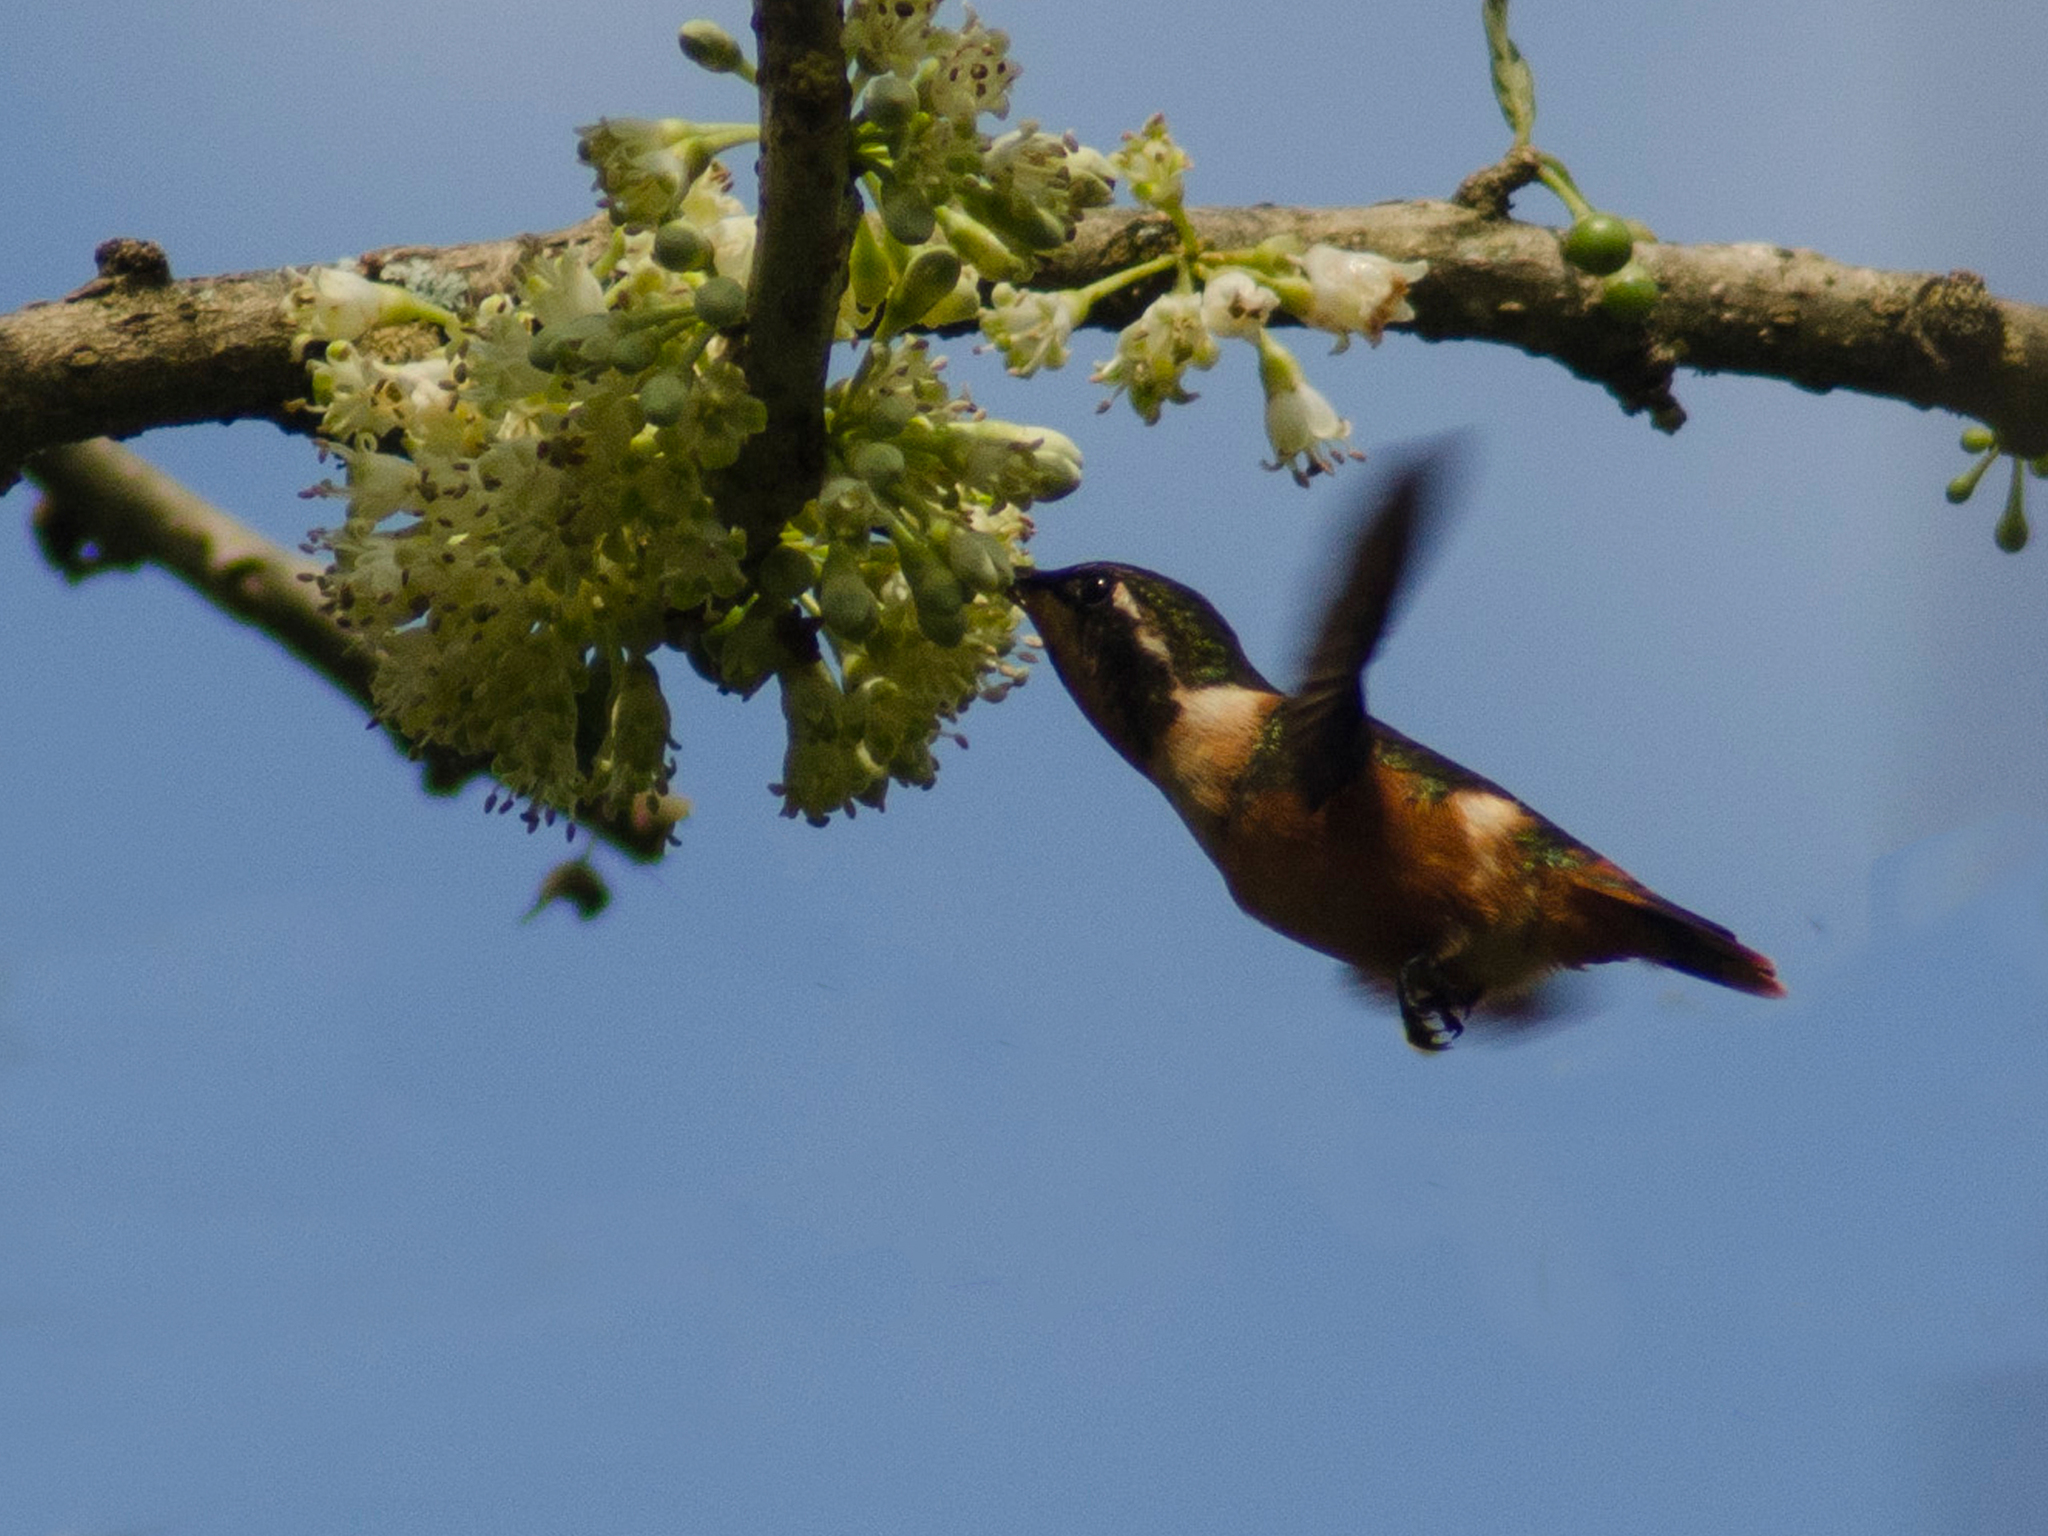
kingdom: Animalia
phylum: Chordata
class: Aves
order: Apodiformes
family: Trochilidae
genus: Calliphlox
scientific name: Calliphlox mitchellii
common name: Purple-throated woodstar
